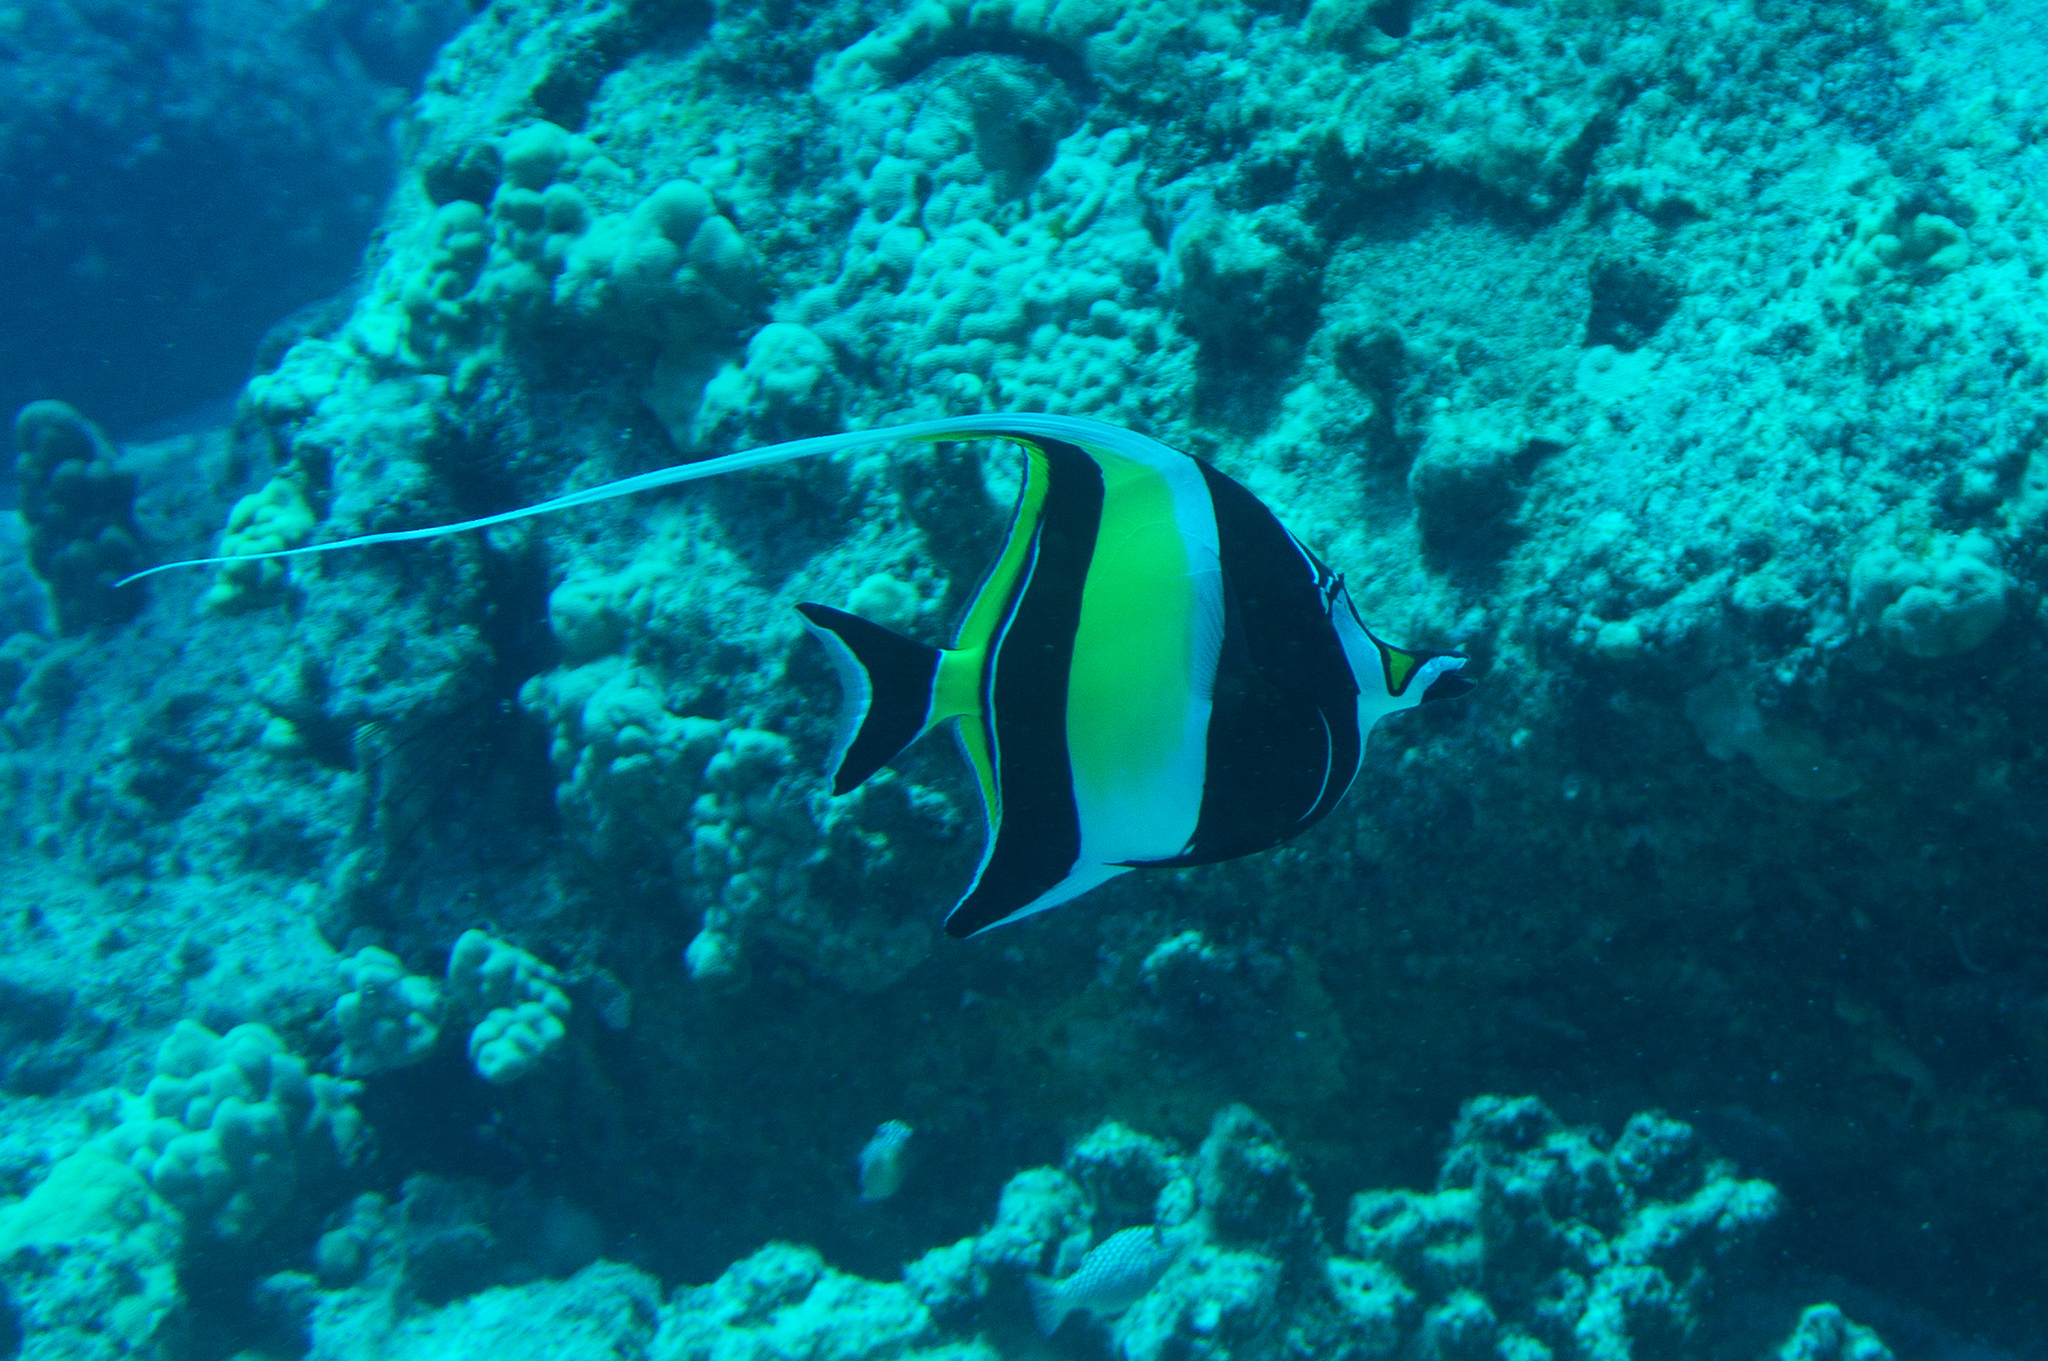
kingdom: Animalia
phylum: Chordata
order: Perciformes
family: Zanclidae
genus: Zanclus
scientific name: Zanclus cornutus
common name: Moorish idol
